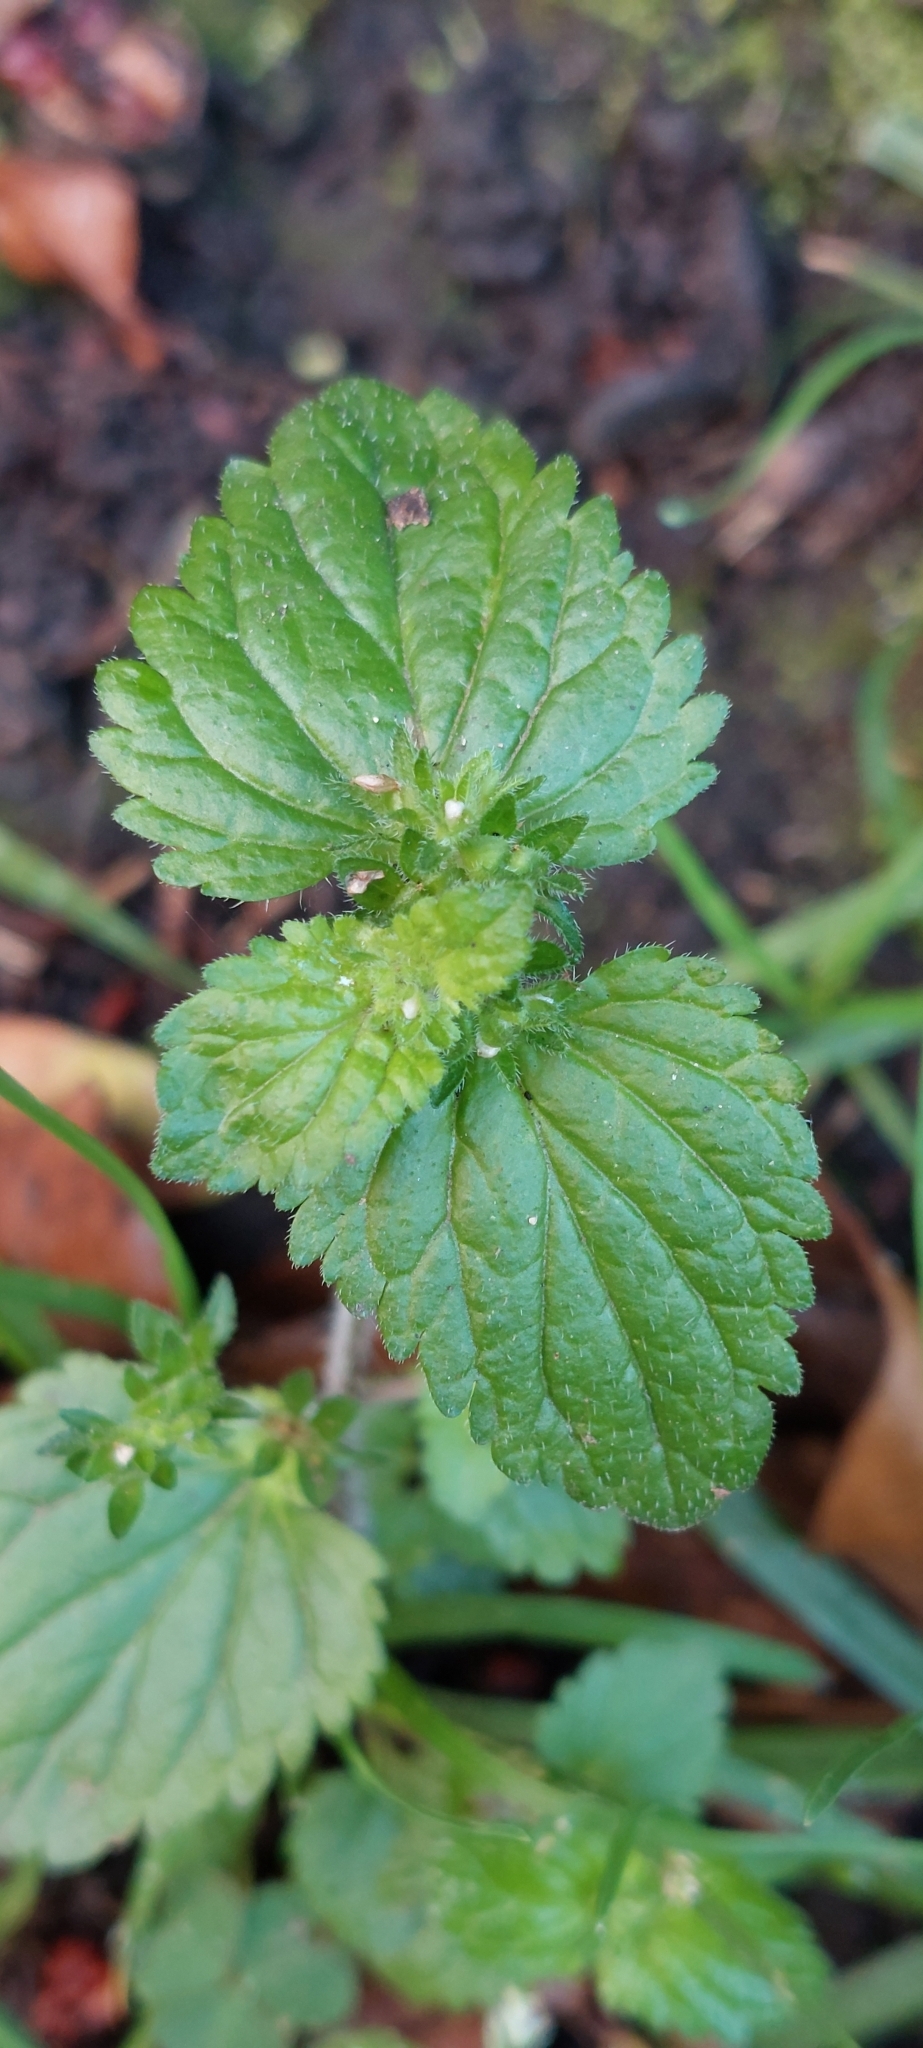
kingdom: Plantae
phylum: Tracheophyta
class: Magnoliopsida
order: Lamiales
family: Plantaginaceae
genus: Veronica
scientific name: Veronica javanica
